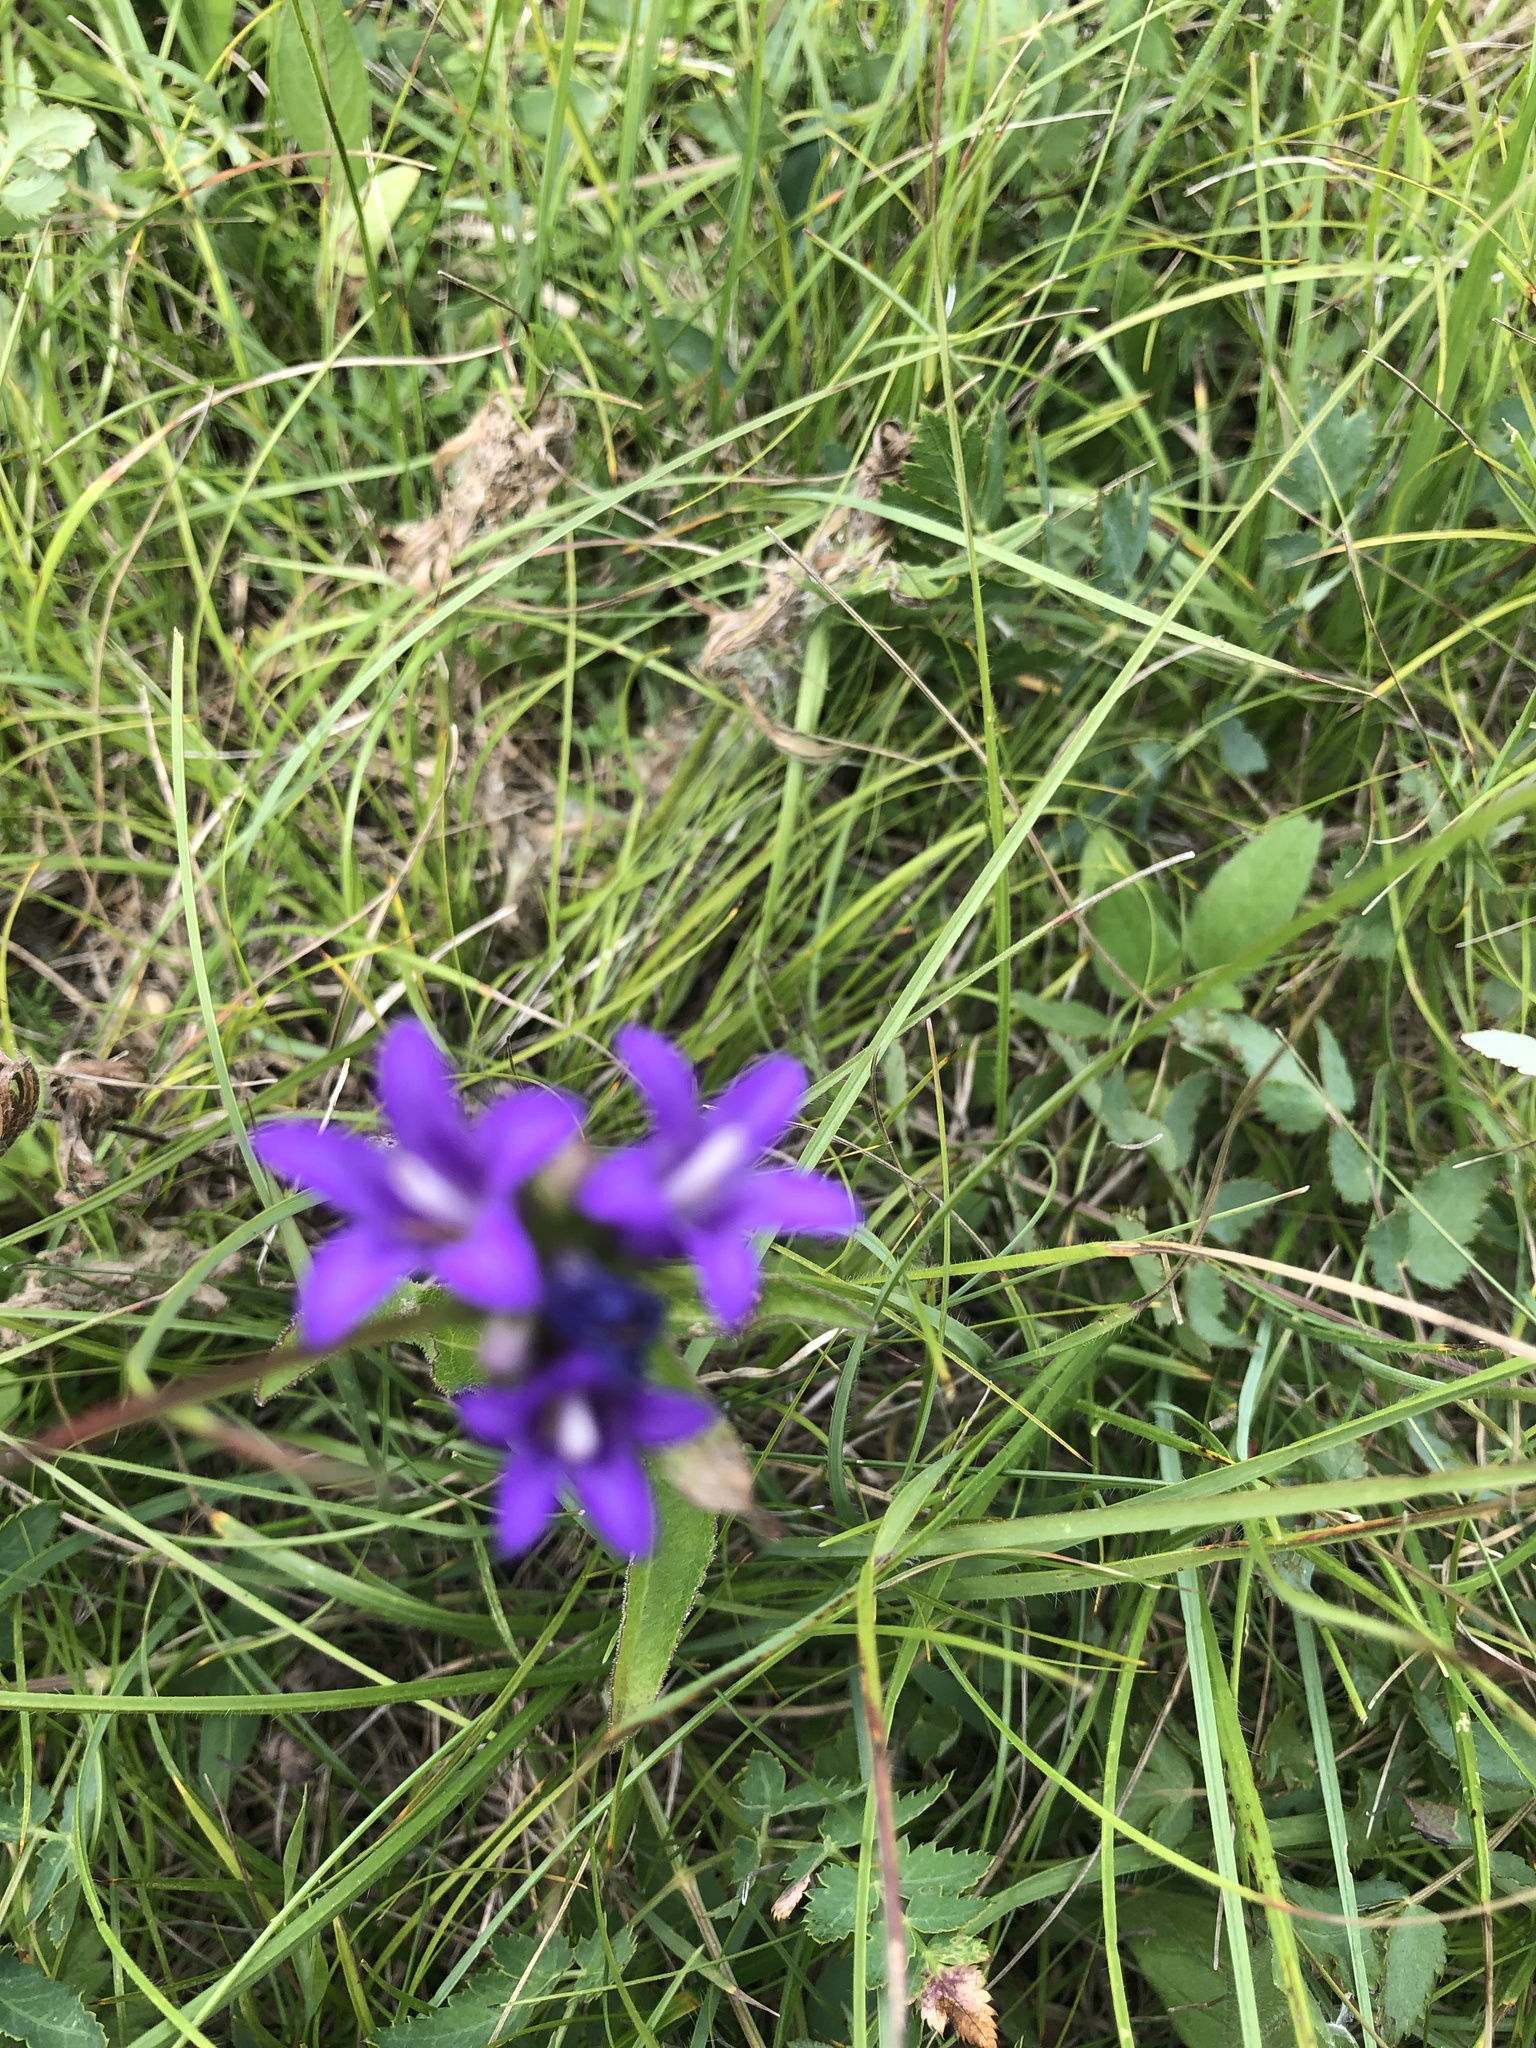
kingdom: Plantae
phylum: Tracheophyta
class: Magnoliopsida
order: Asterales
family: Campanulaceae
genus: Campanula
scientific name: Campanula glomerata
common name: Clustered bellflower
